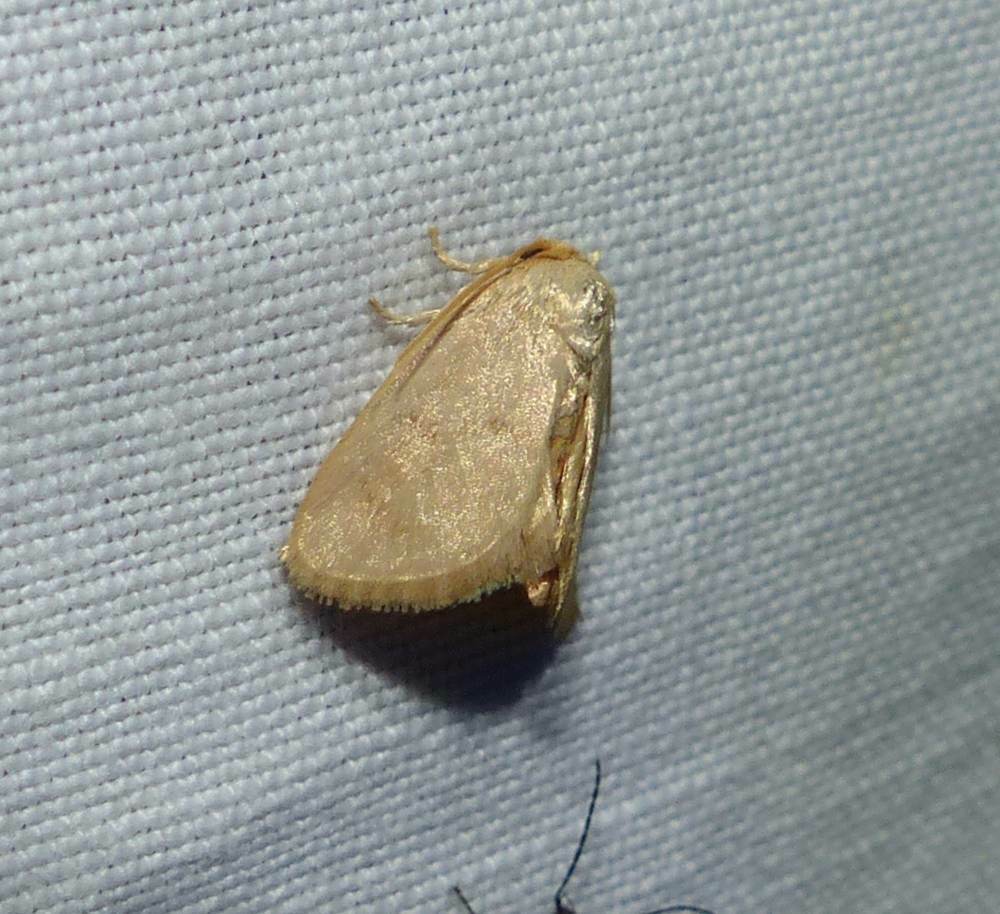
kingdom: Animalia
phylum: Arthropoda
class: Insecta
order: Lepidoptera
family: Limacodidae
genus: Tortricidia
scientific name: Tortricidia pallida
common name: Red-crossed button slug moth
